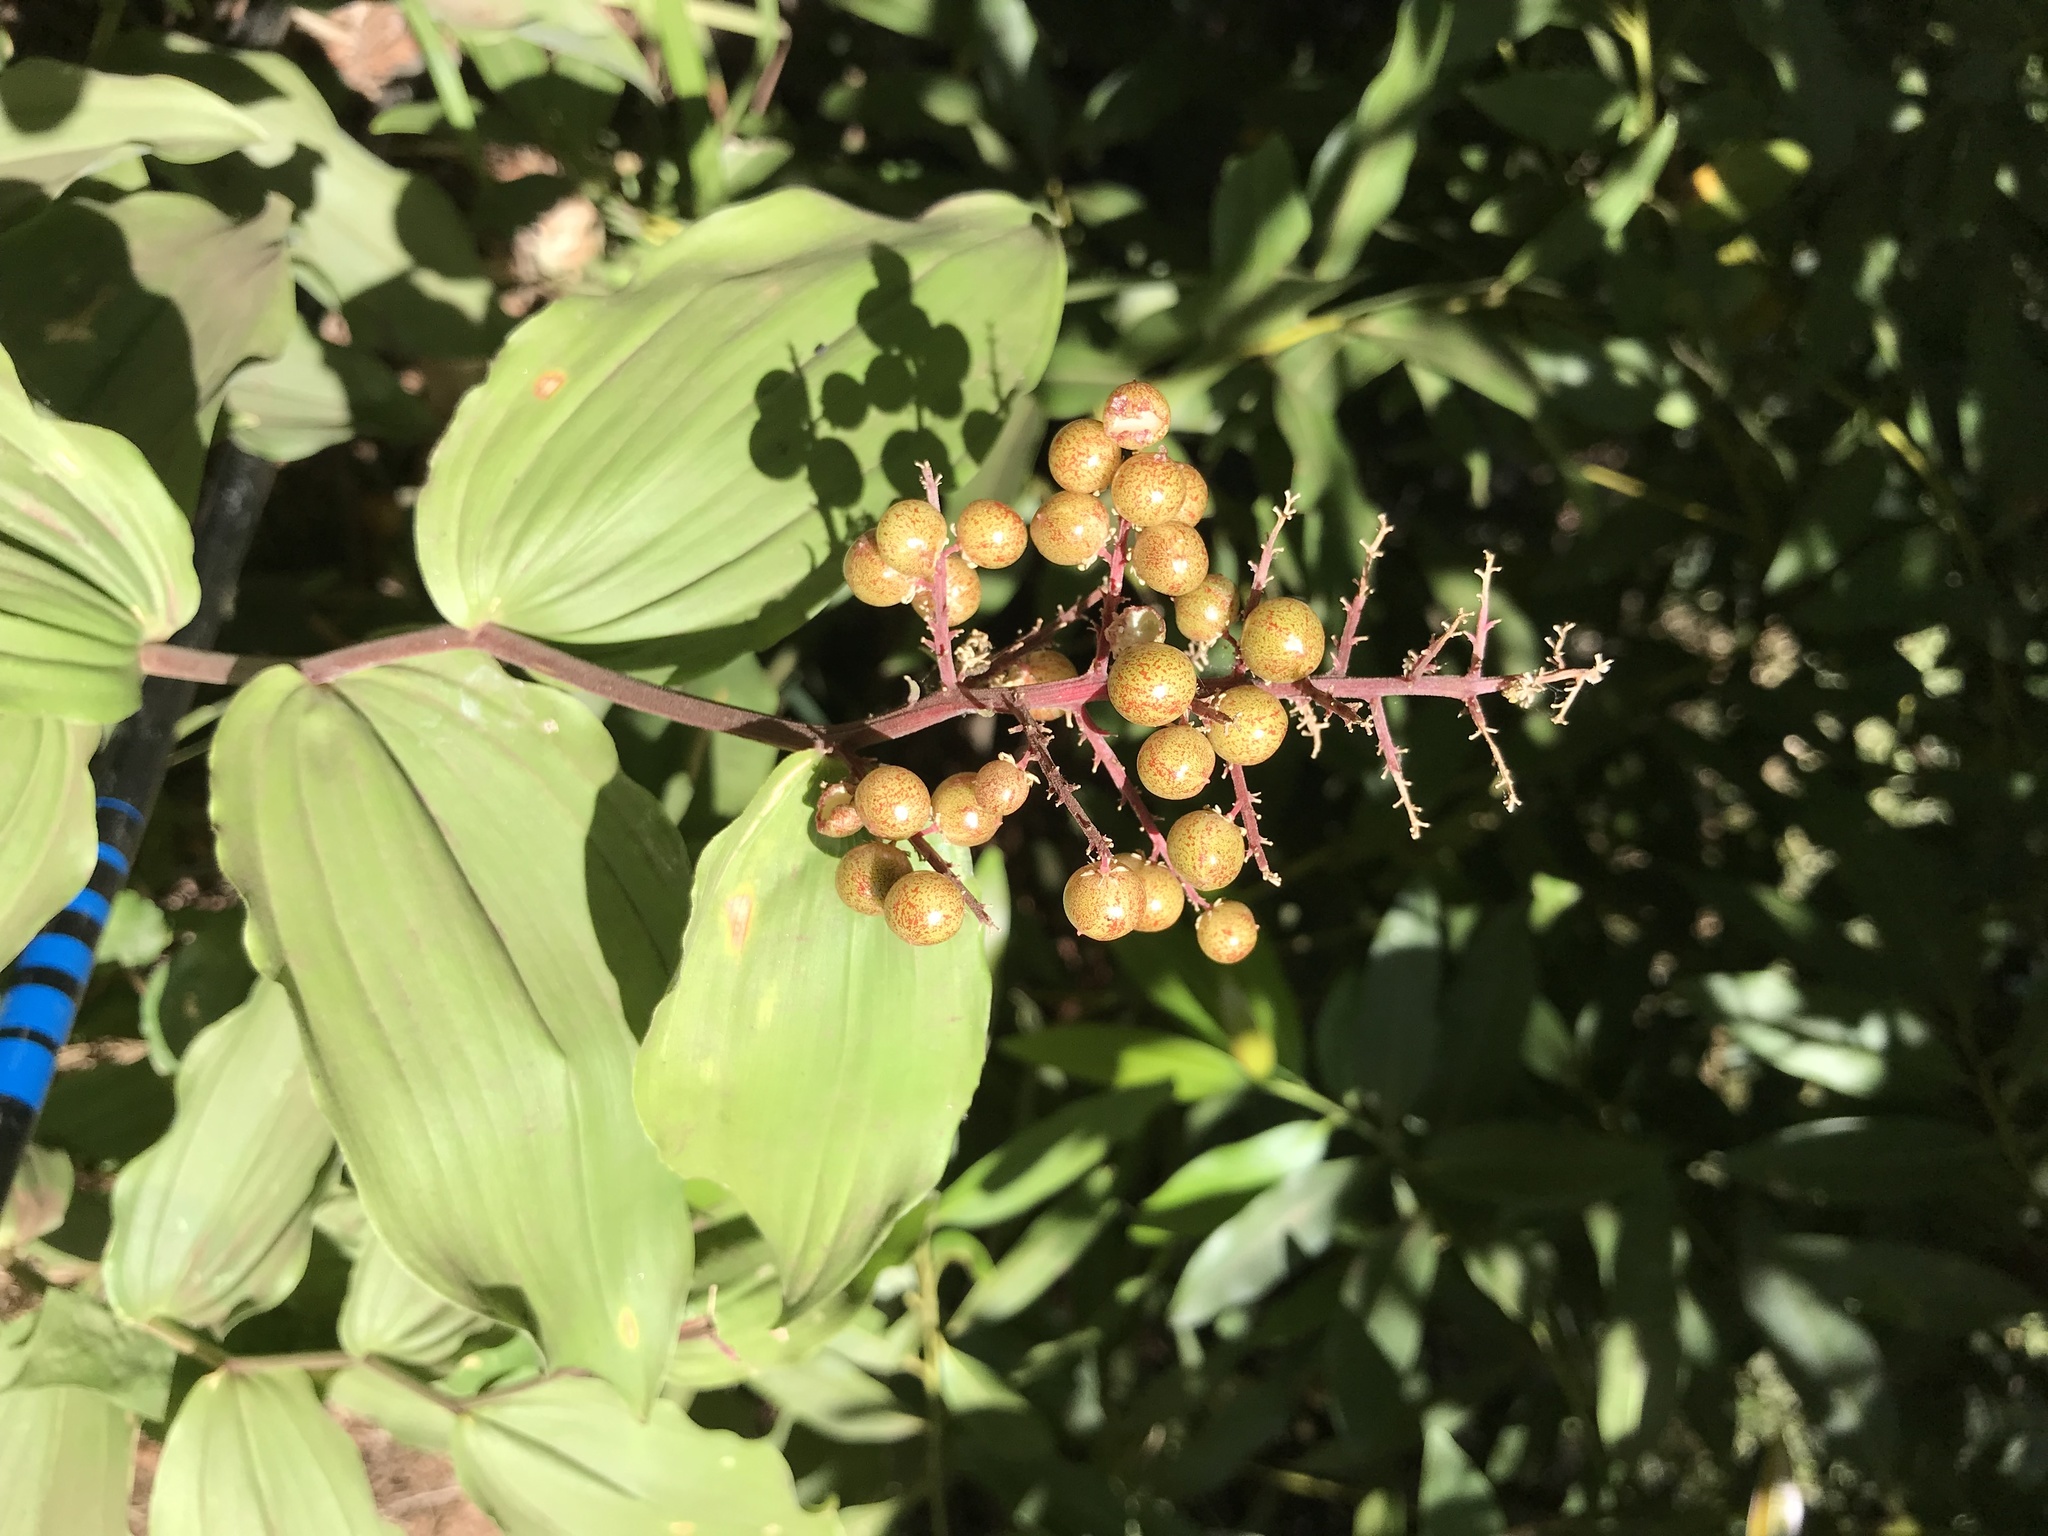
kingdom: Plantae
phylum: Tracheophyta
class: Liliopsida
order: Asparagales
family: Asparagaceae
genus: Maianthemum
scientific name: Maianthemum racemosum
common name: False spikenard
